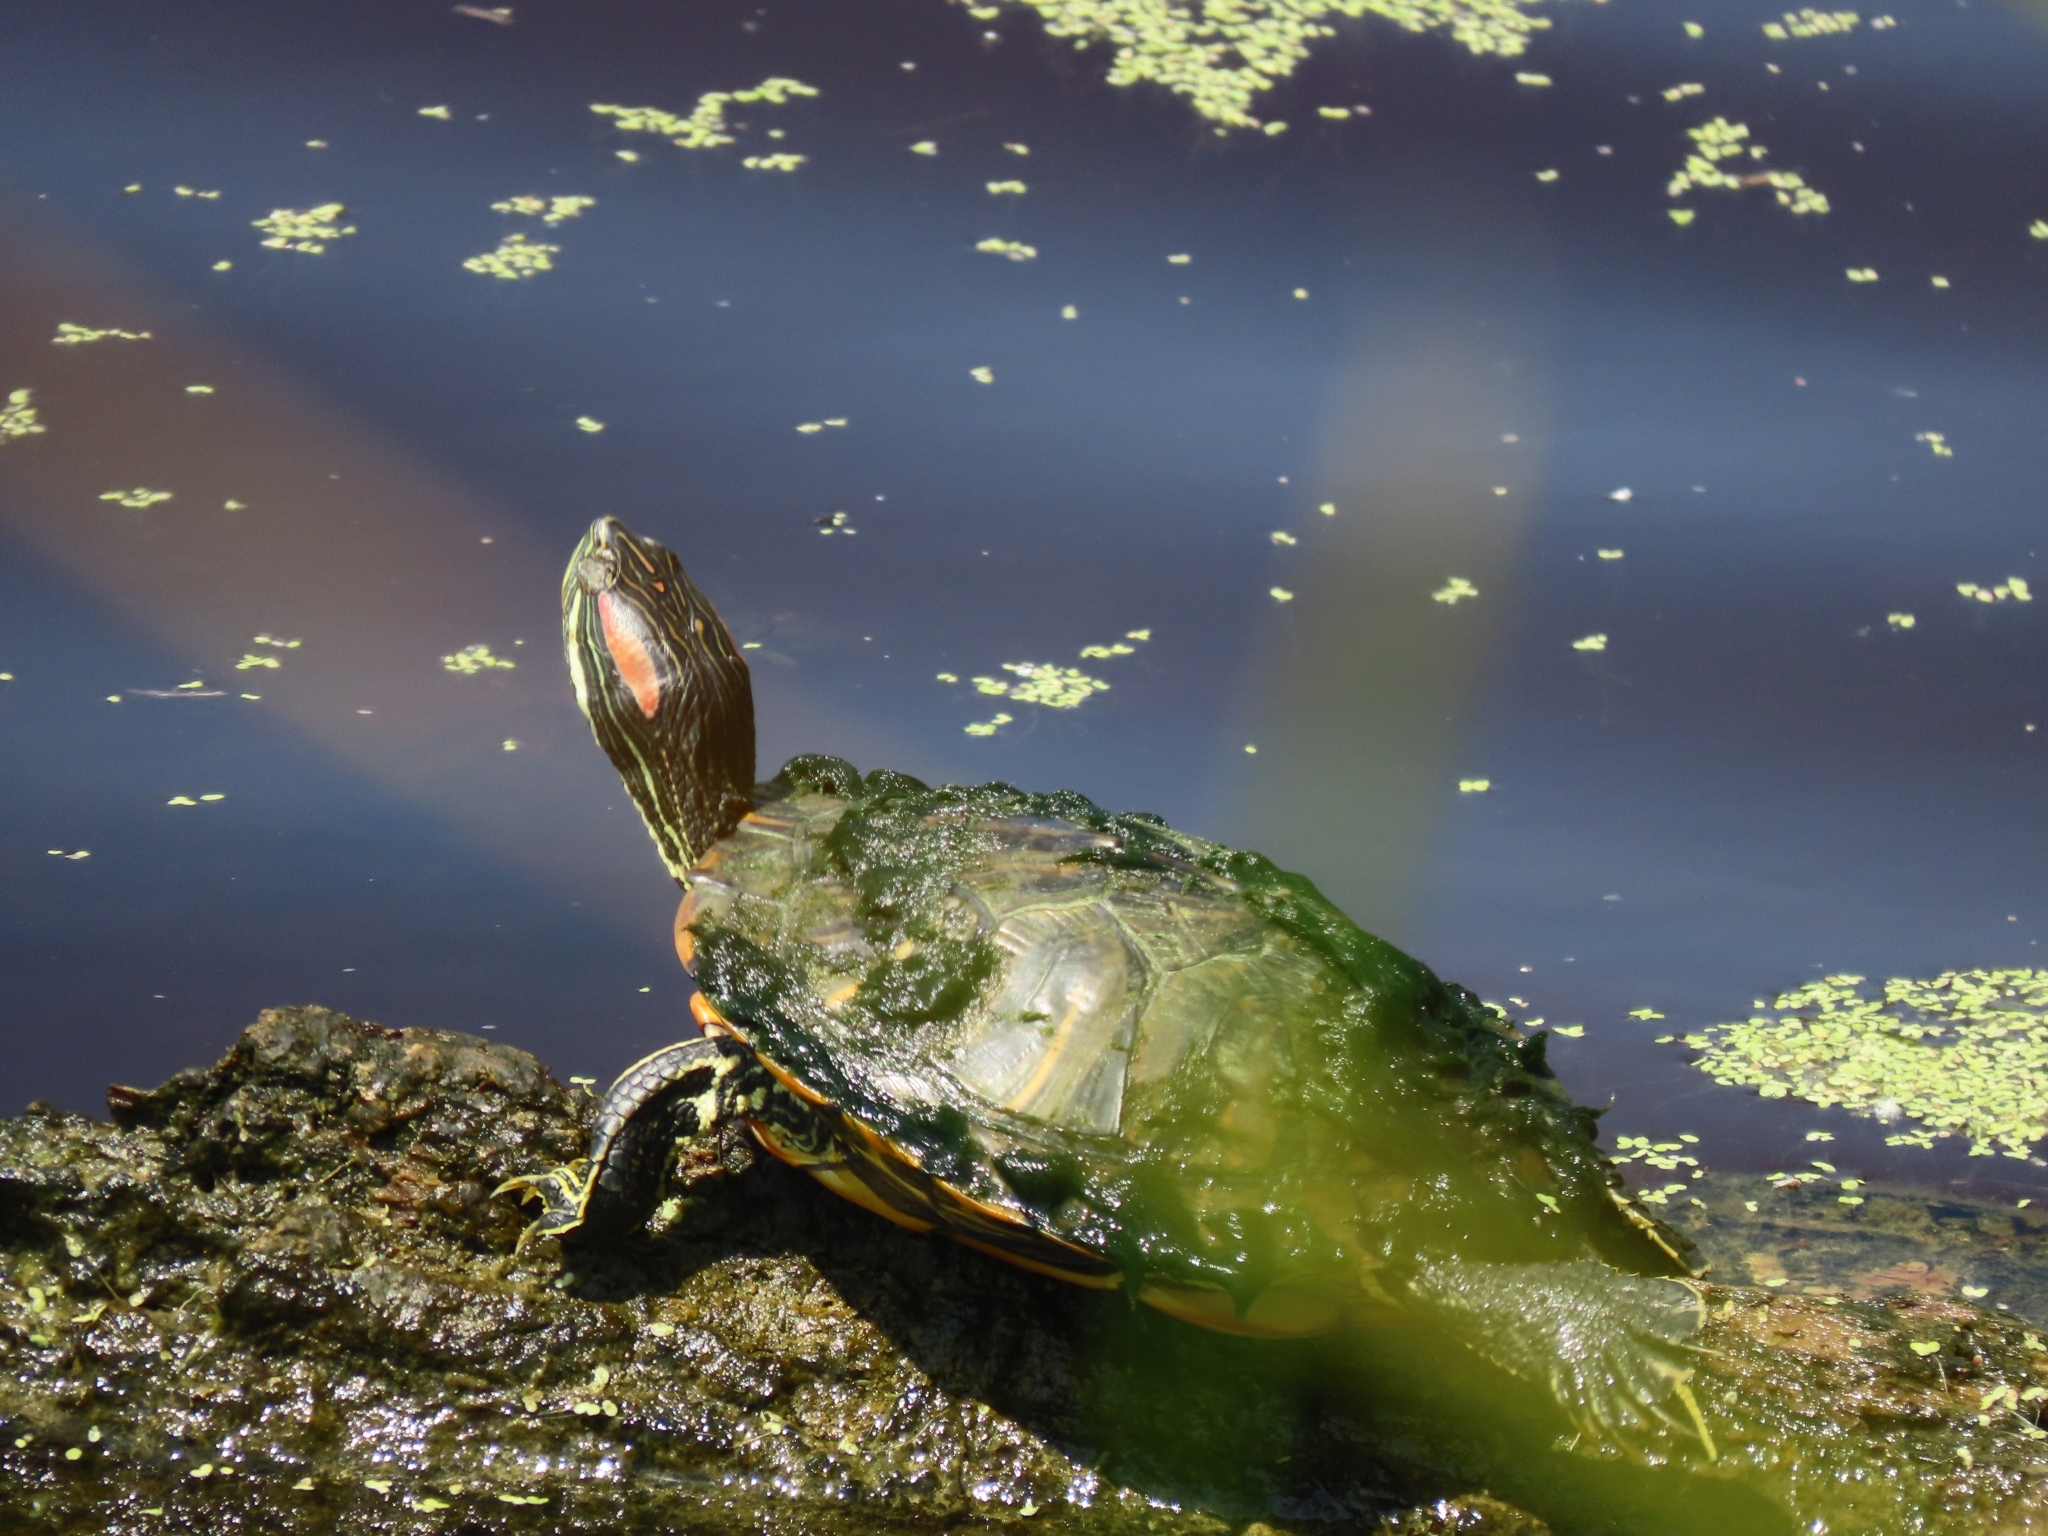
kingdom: Animalia
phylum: Chordata
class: Testudines
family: Emydidae
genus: Trachemys
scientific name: Trachemys scripta
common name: Slider
